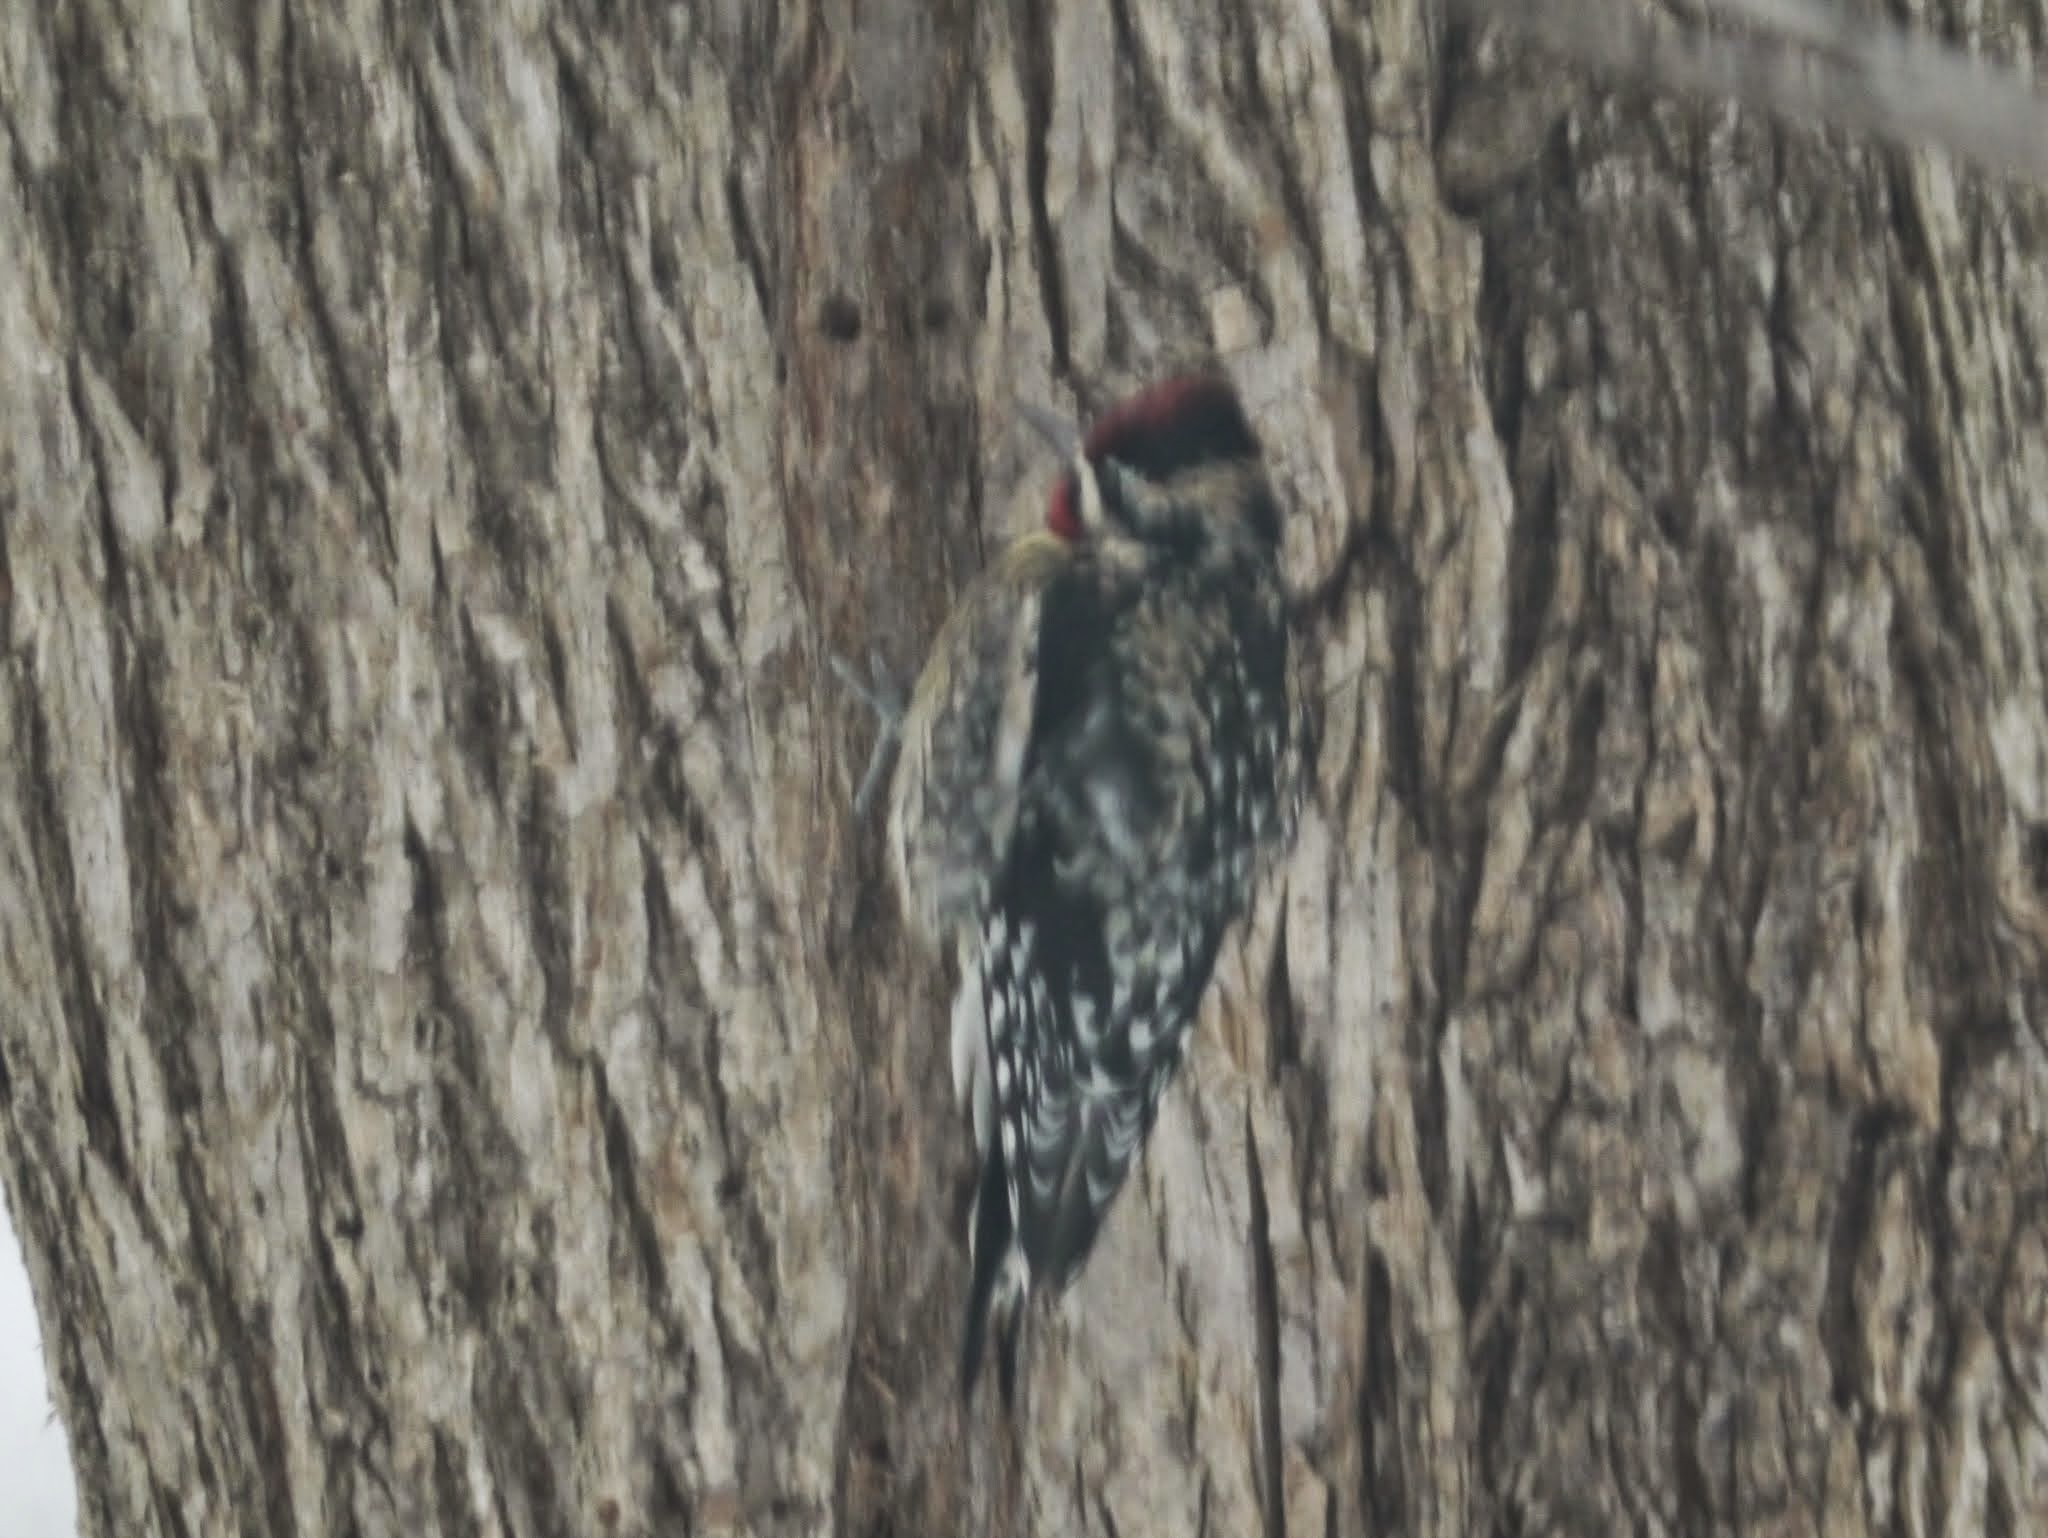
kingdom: Animalia
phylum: Chordata
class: Aves
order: Piciformes
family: Picidae
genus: Sphyrapicus
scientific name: Sphyrapicus varius
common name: Yellow-bellied sapsucker
